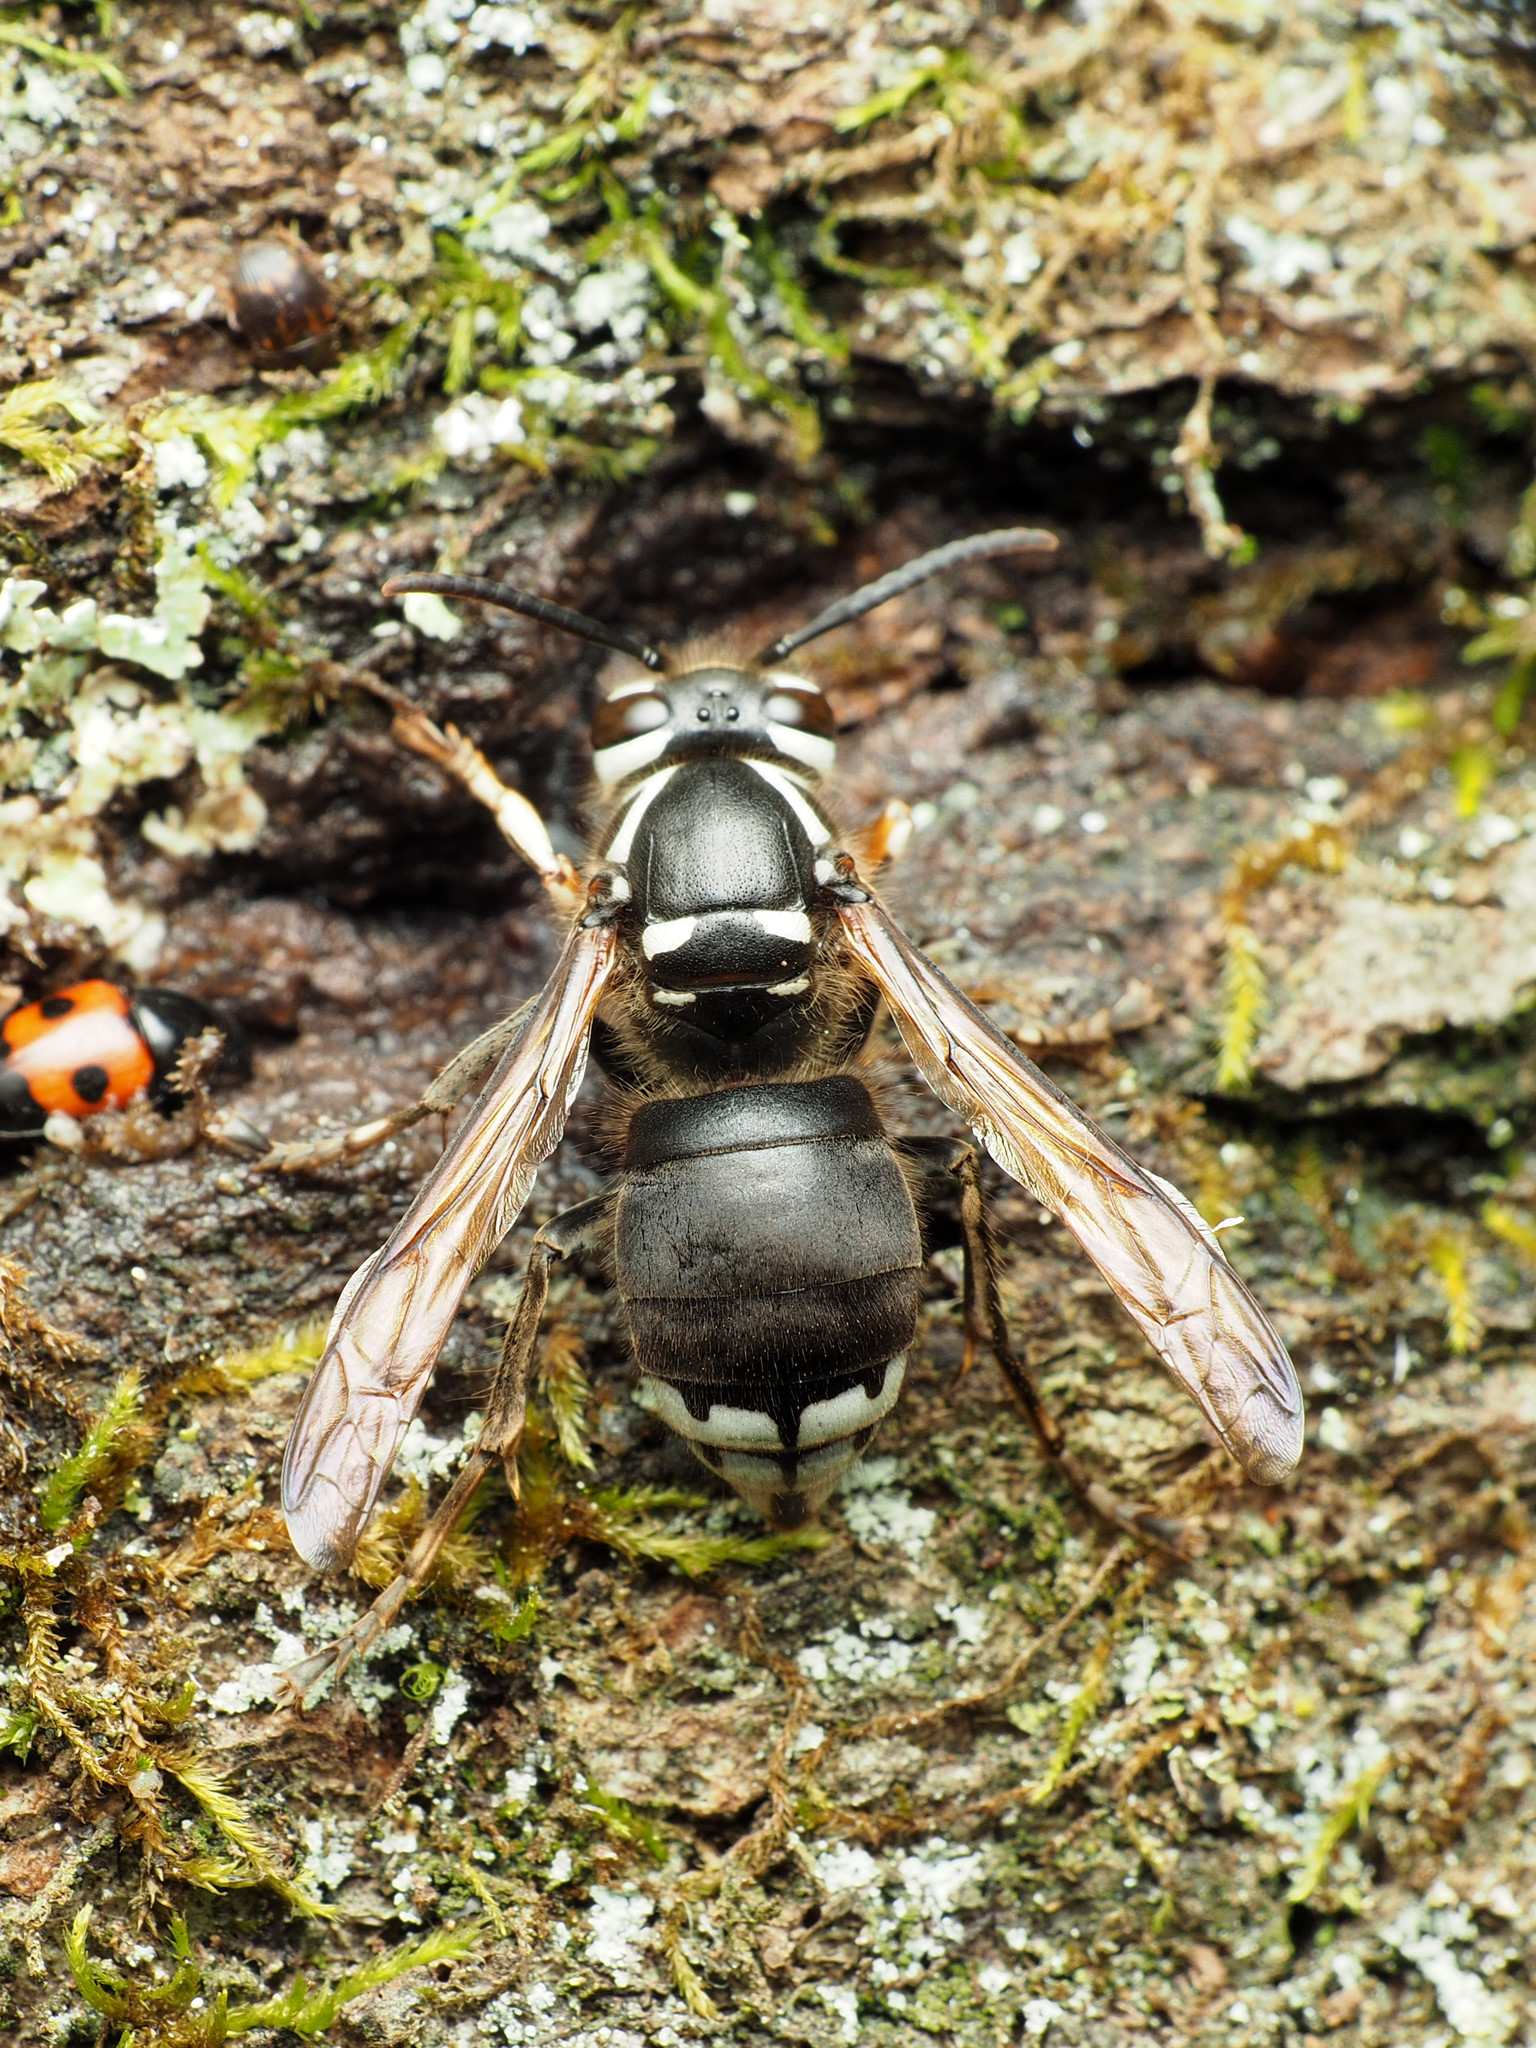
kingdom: Animalia
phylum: Arthropoda
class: Insecta
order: Hymenoptera
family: Vespidae
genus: Dolichovespula
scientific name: Dolichovespula maculata
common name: Bald-faced hornet
